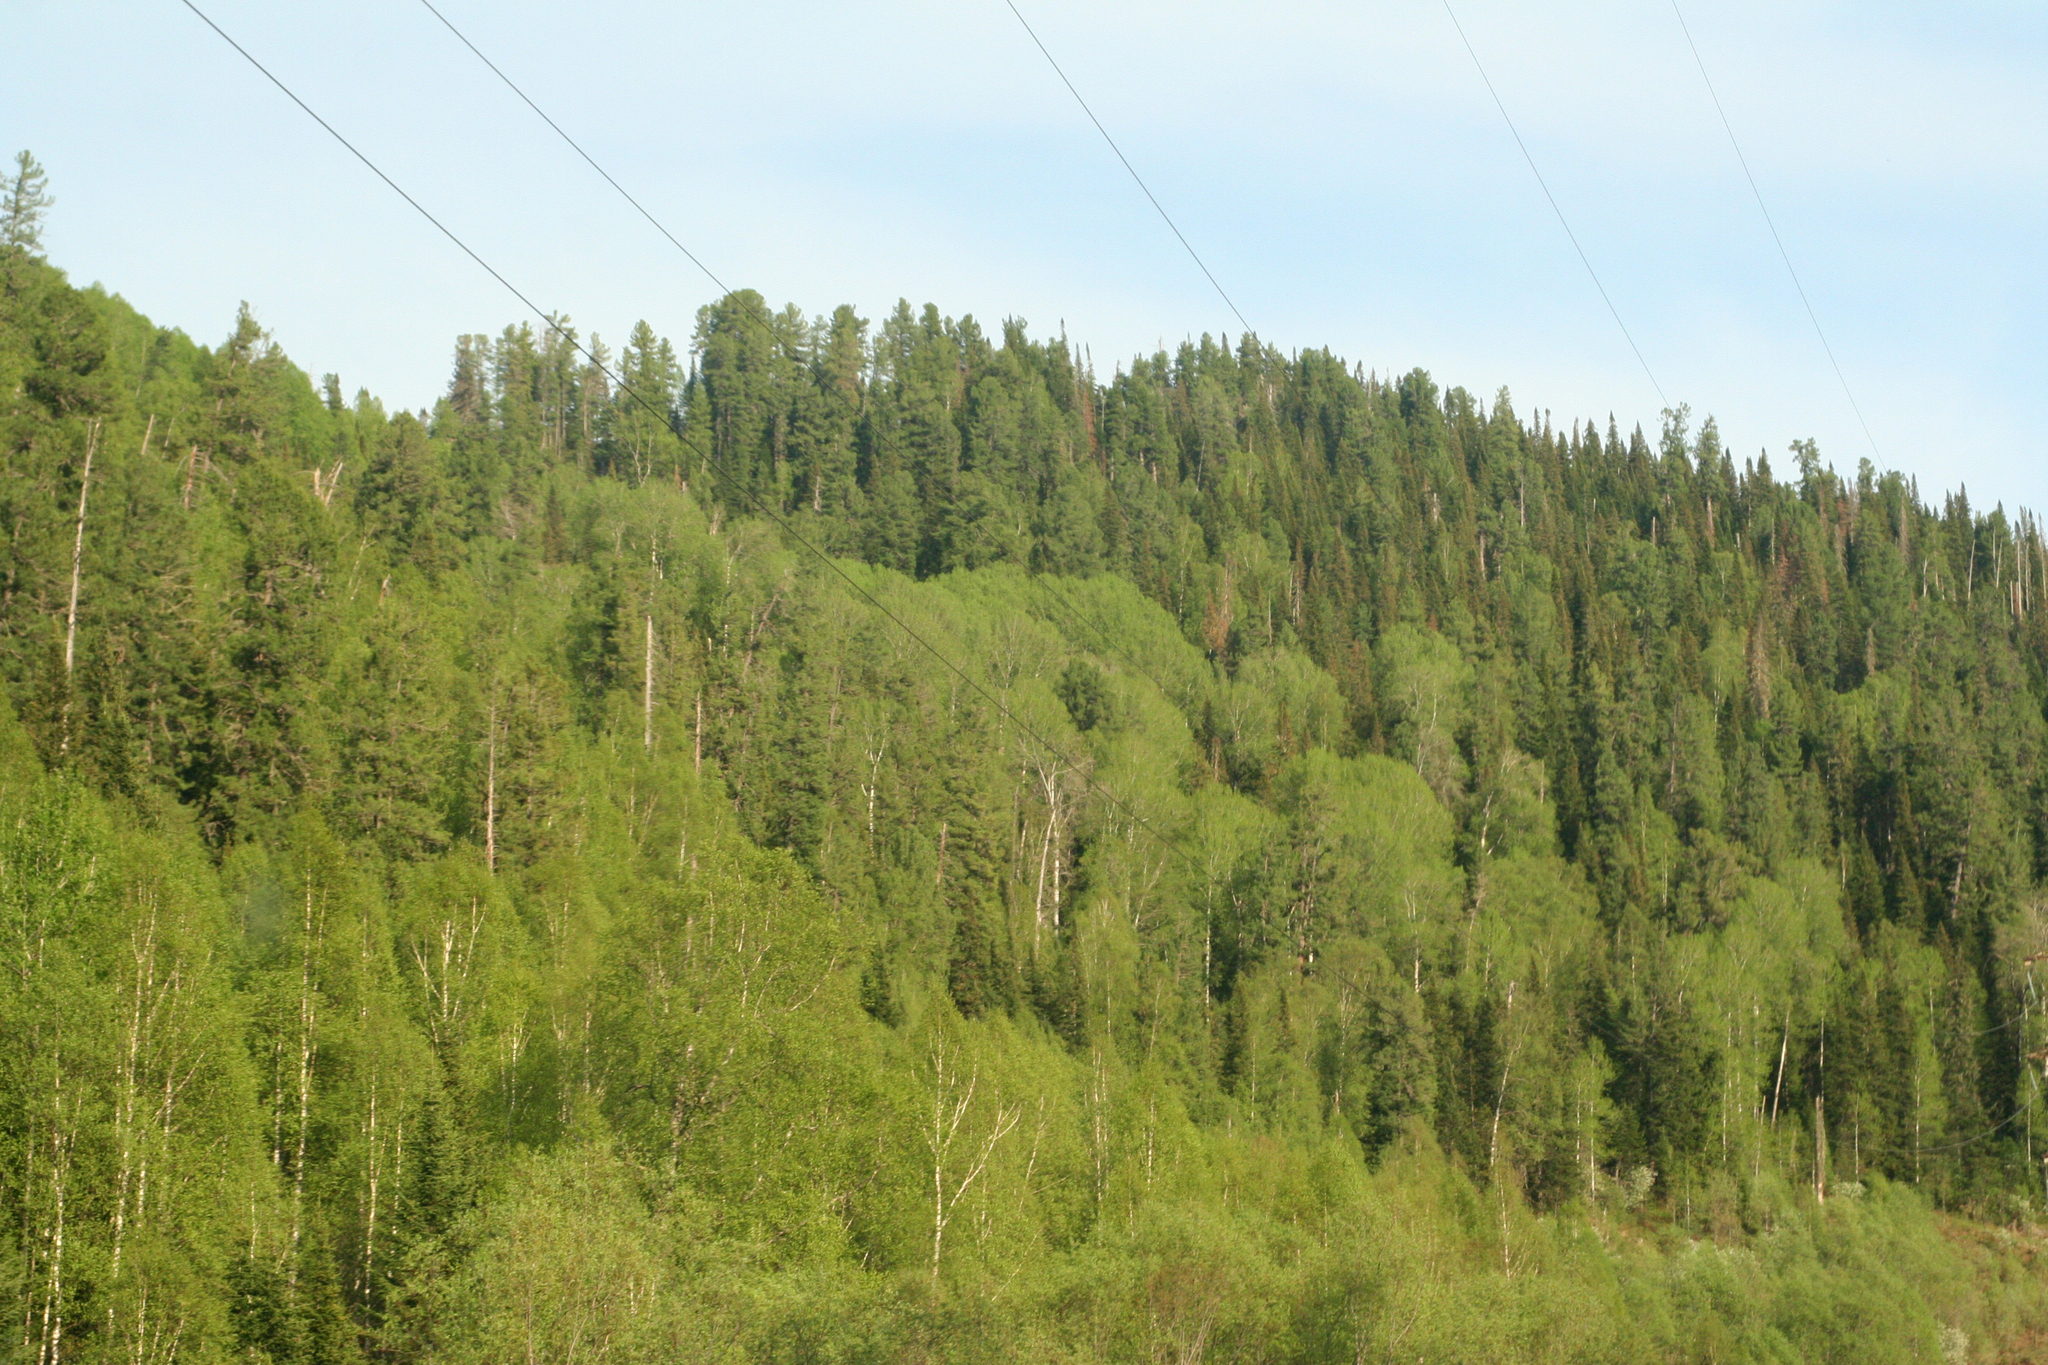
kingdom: Plantae
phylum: Tracheophyta
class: Pinopsida
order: Pinales
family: Pinaceae
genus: Abies
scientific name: Abies sibirica
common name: Siberian fir
